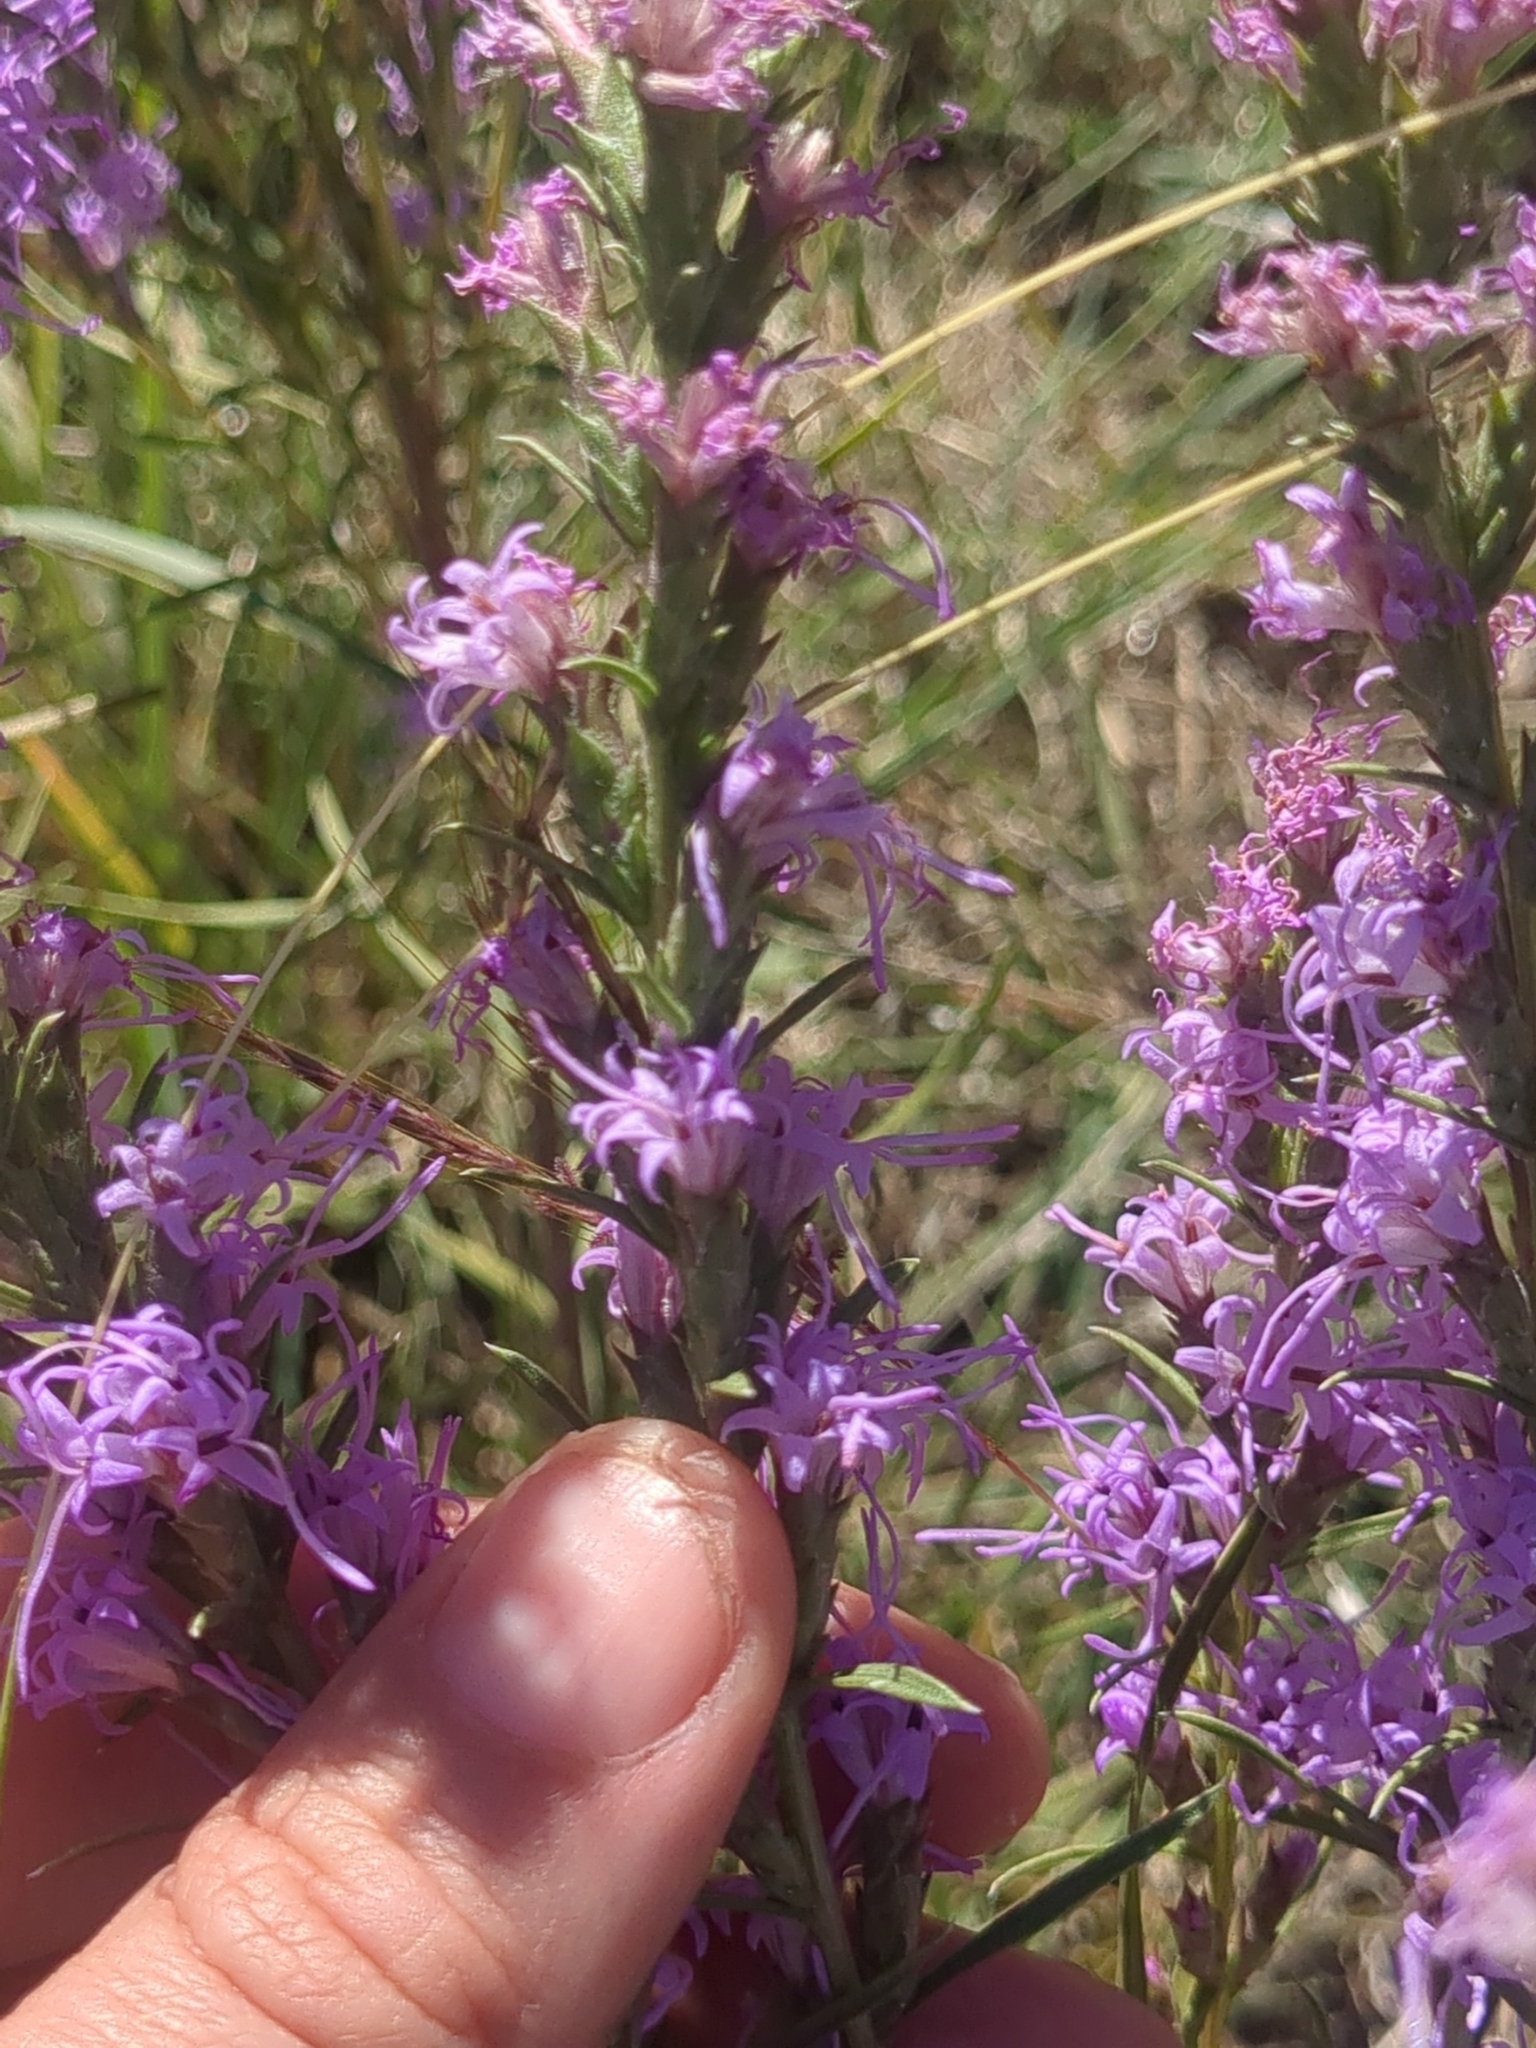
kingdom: Plantae
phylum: Tracheophyta
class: Magnoliopsida
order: Asterales
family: Asteraceae
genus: Liatris
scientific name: Liatris punctata
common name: Dotted gayfeather
